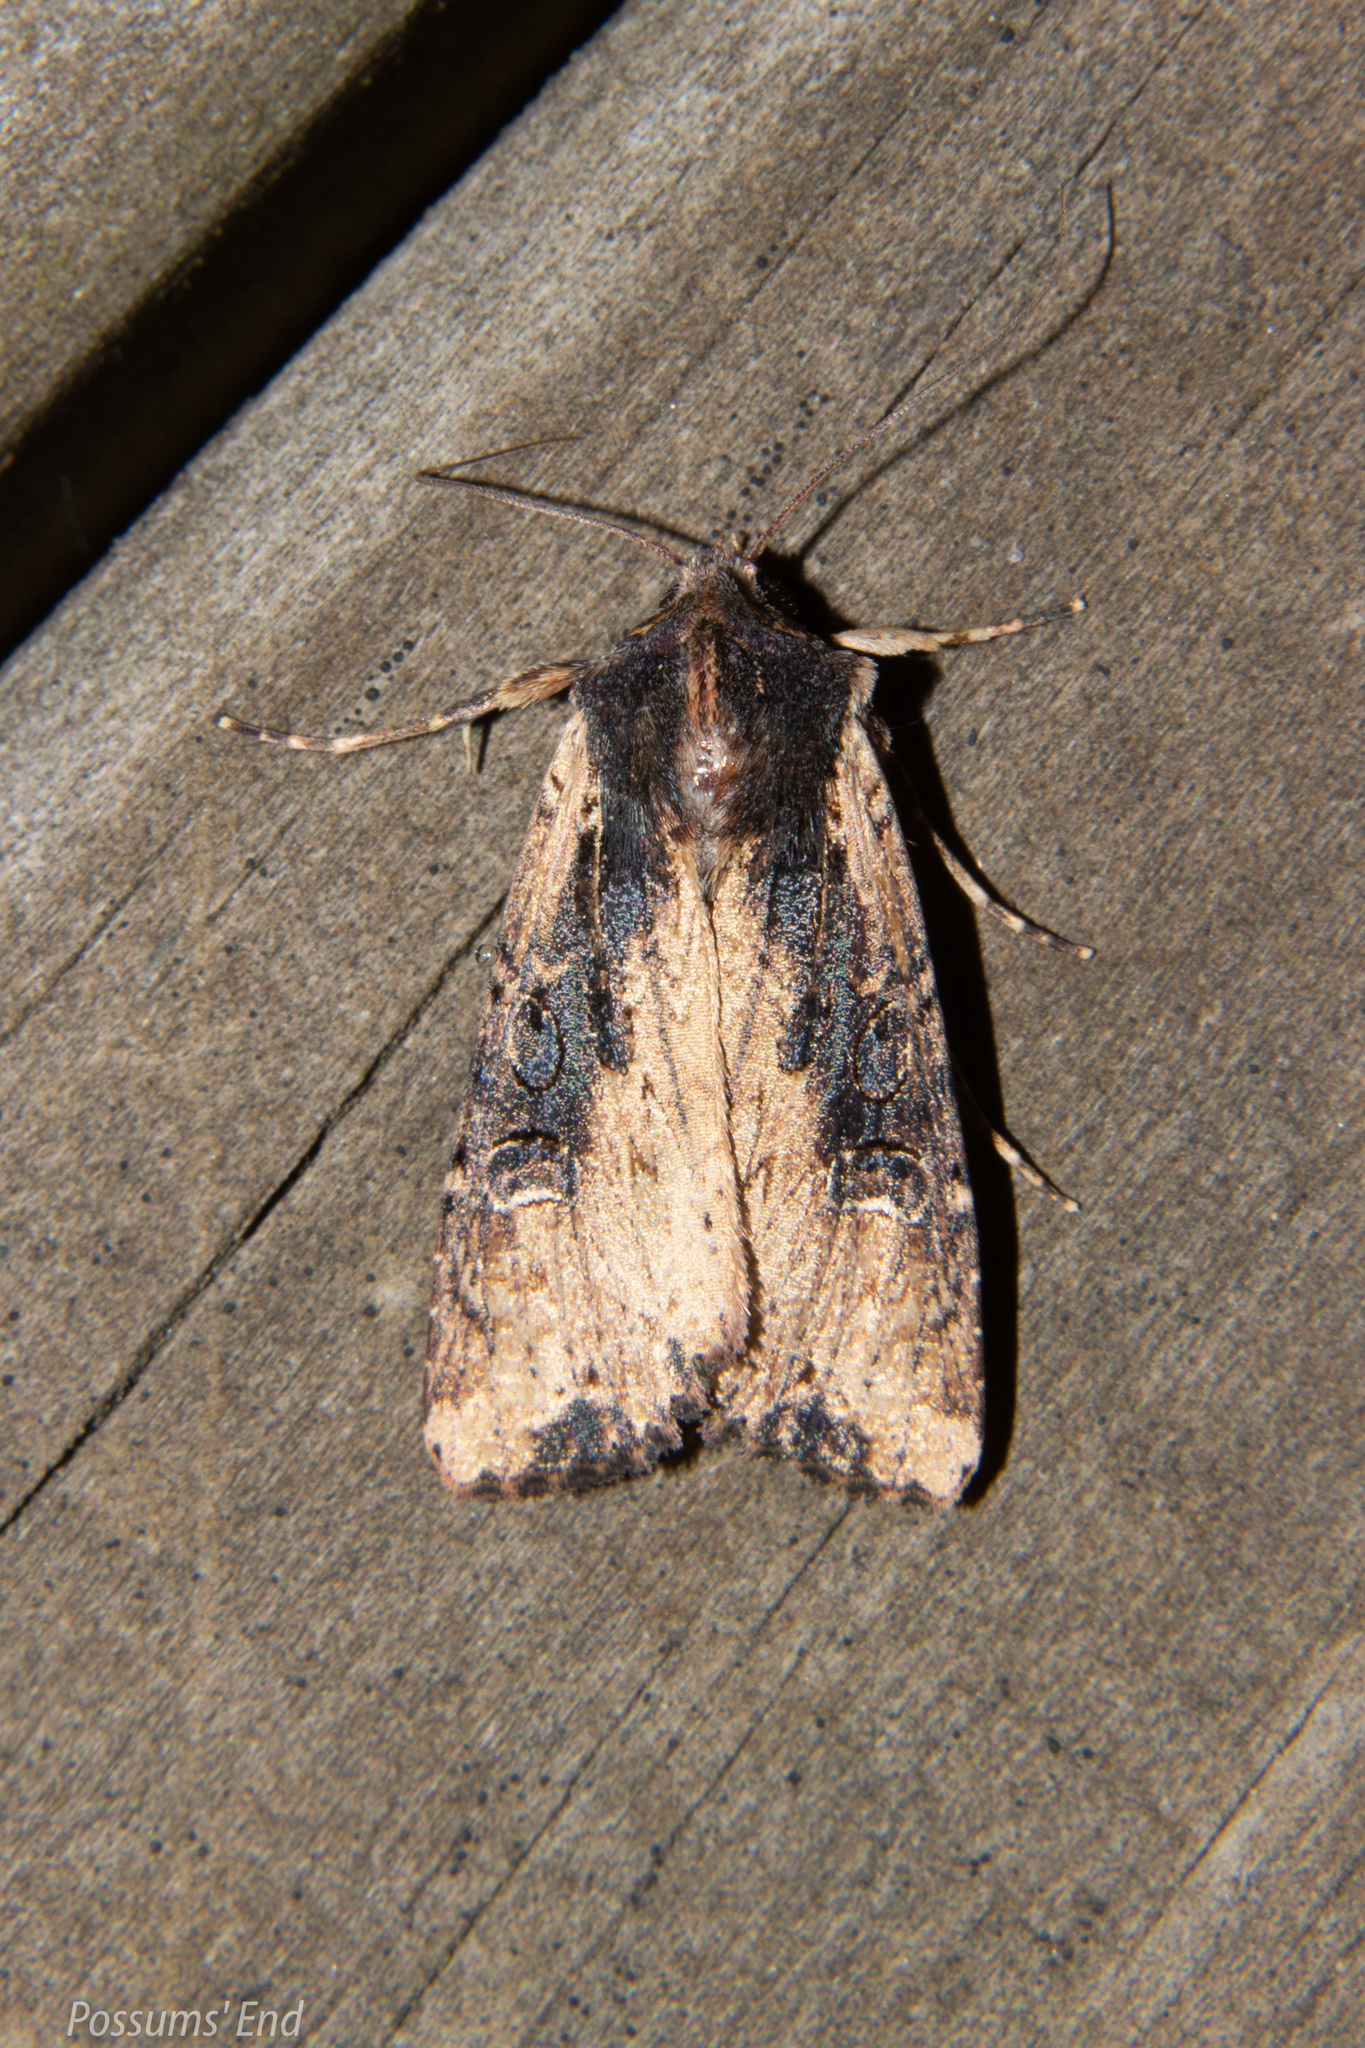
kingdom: Animalia
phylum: Arthropoda
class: Insecta
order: Lepidoptera
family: Noctuidae
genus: Ichneutica
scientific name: Ichneutica omoplaca
